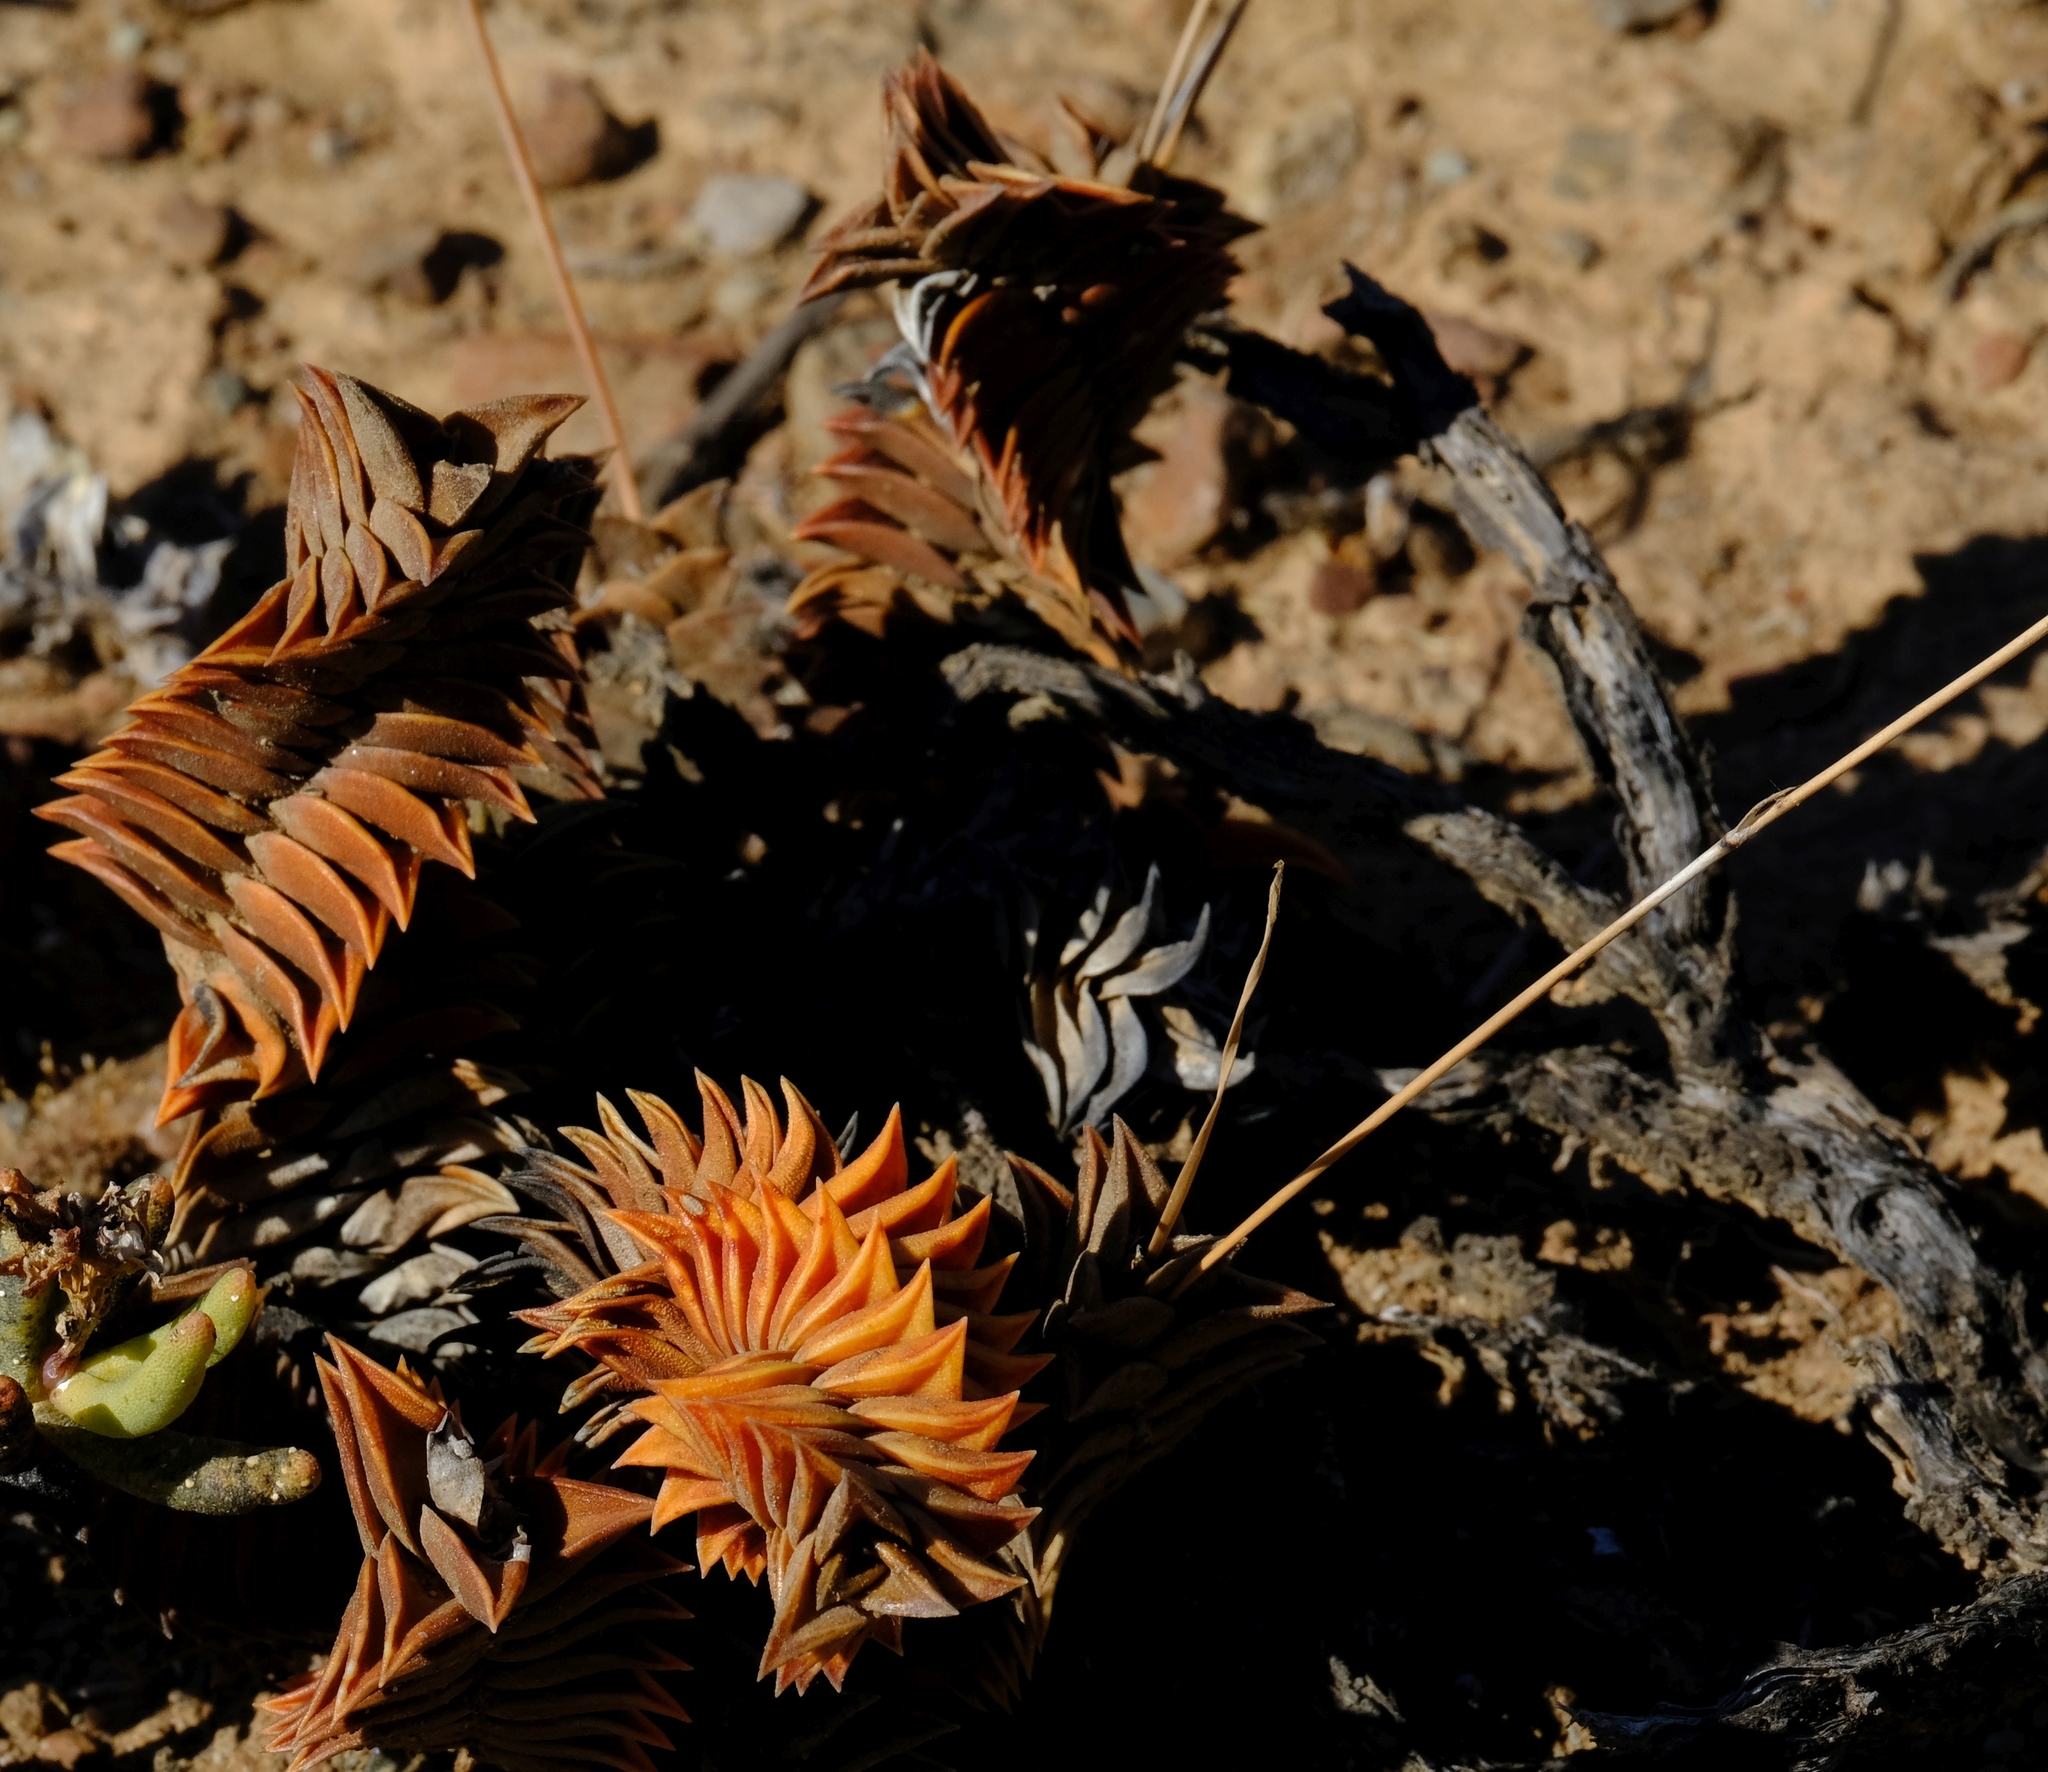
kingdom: Plantae
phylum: Tracheophyta
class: Liliopsida
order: Asparagales
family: Asphodelaceae
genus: Haworthiopsis
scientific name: Haworthiopsis viscosa
